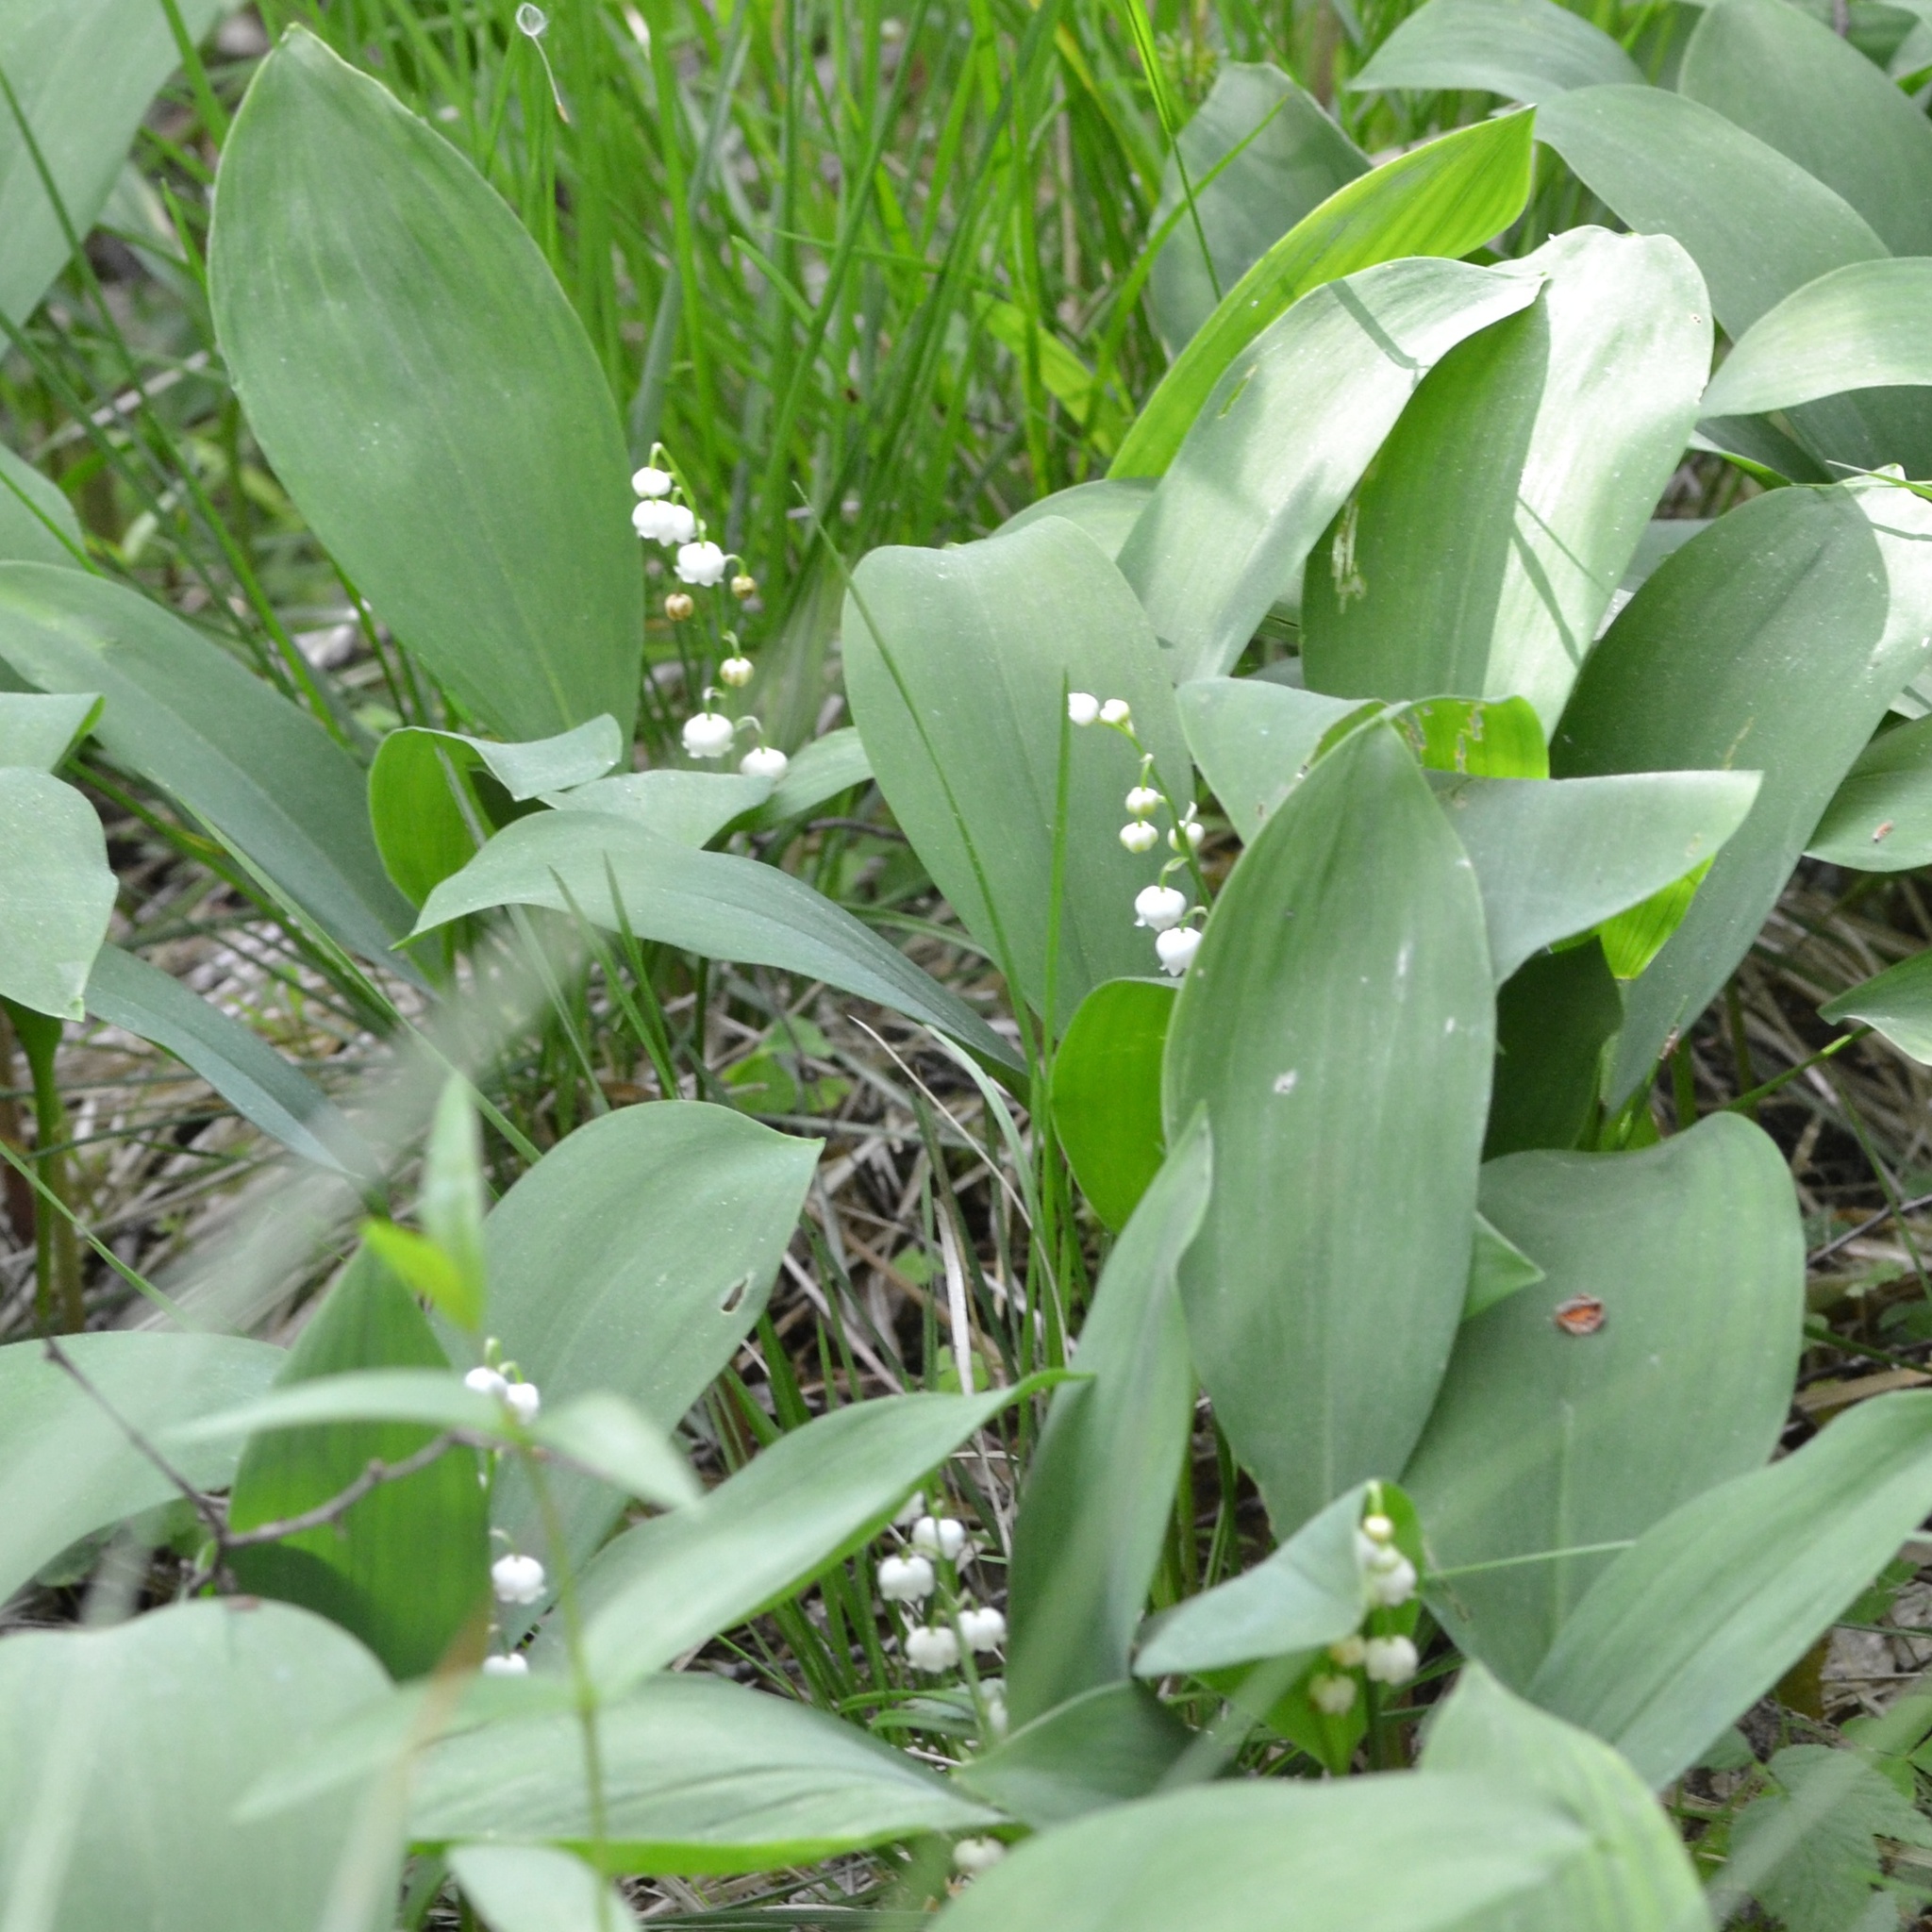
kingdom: Plantae
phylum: Tracheophyta
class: Liliopsida
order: Asparagales
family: Asparagaceae
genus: Convallaria
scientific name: Convallaria majalis
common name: Lily-of-the-valley
